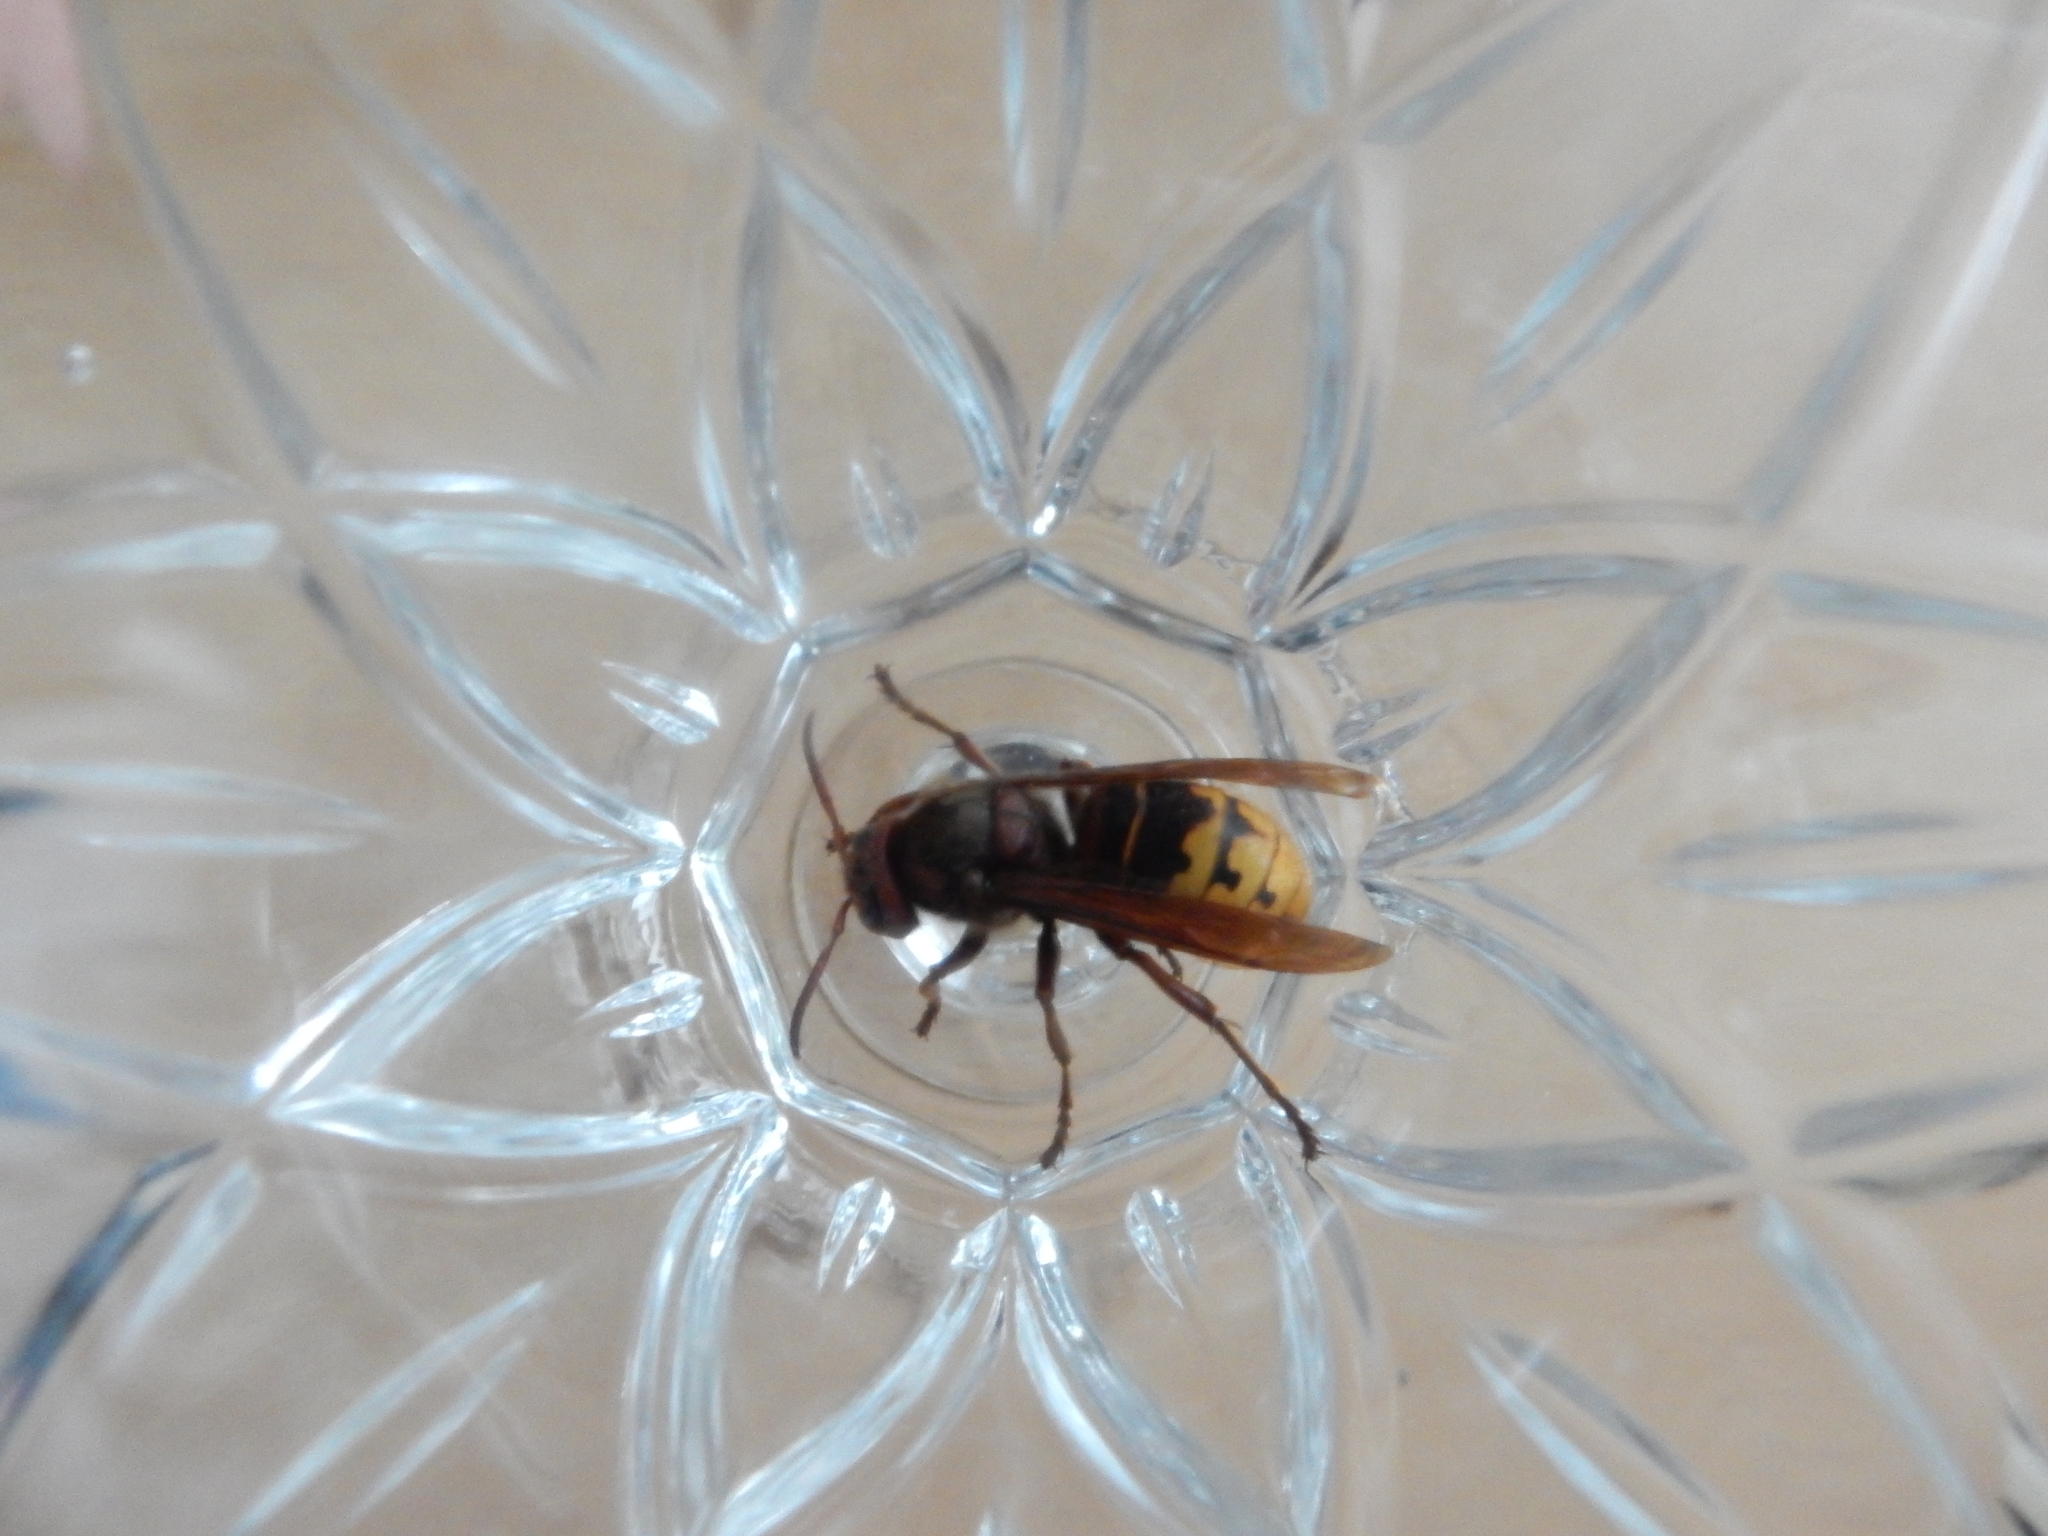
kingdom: Animalia
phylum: Arthropoda
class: Insecta
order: Hymenoptera
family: Vespidae
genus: Vespa
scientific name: Vespa crabro
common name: Hornet
